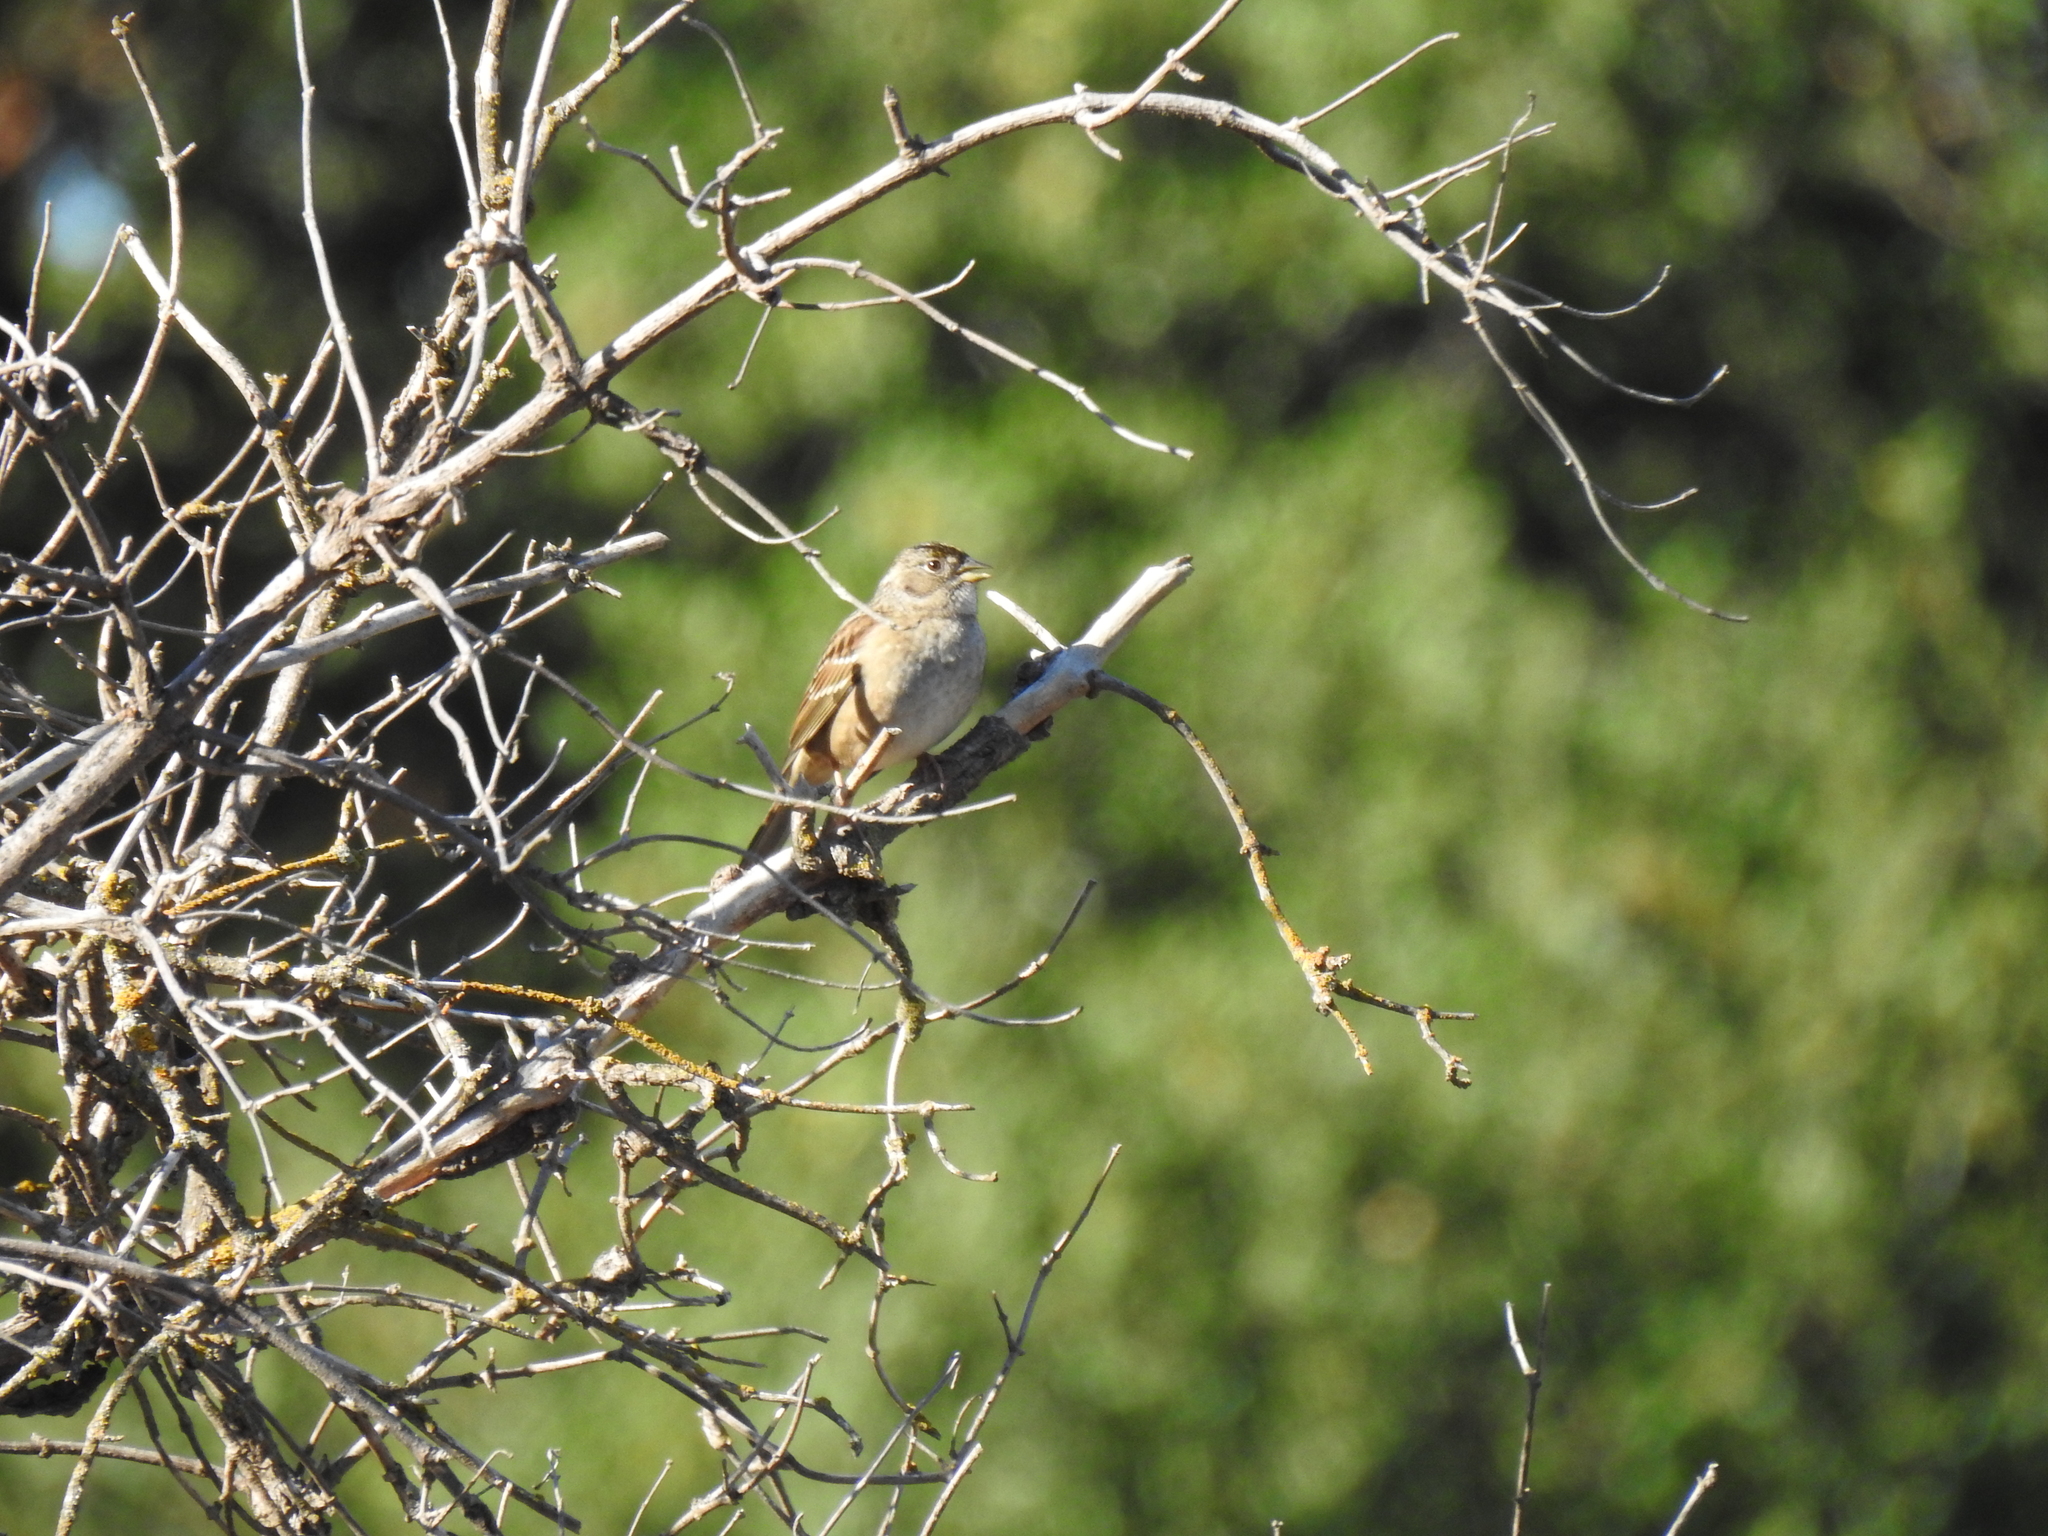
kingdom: Animalia
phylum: Chordata
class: Aves
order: Passeriformes
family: Passerellidae
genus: Zonotrichia
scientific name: Zonotrichia atricapilla
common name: Golden-crowned sparrow
